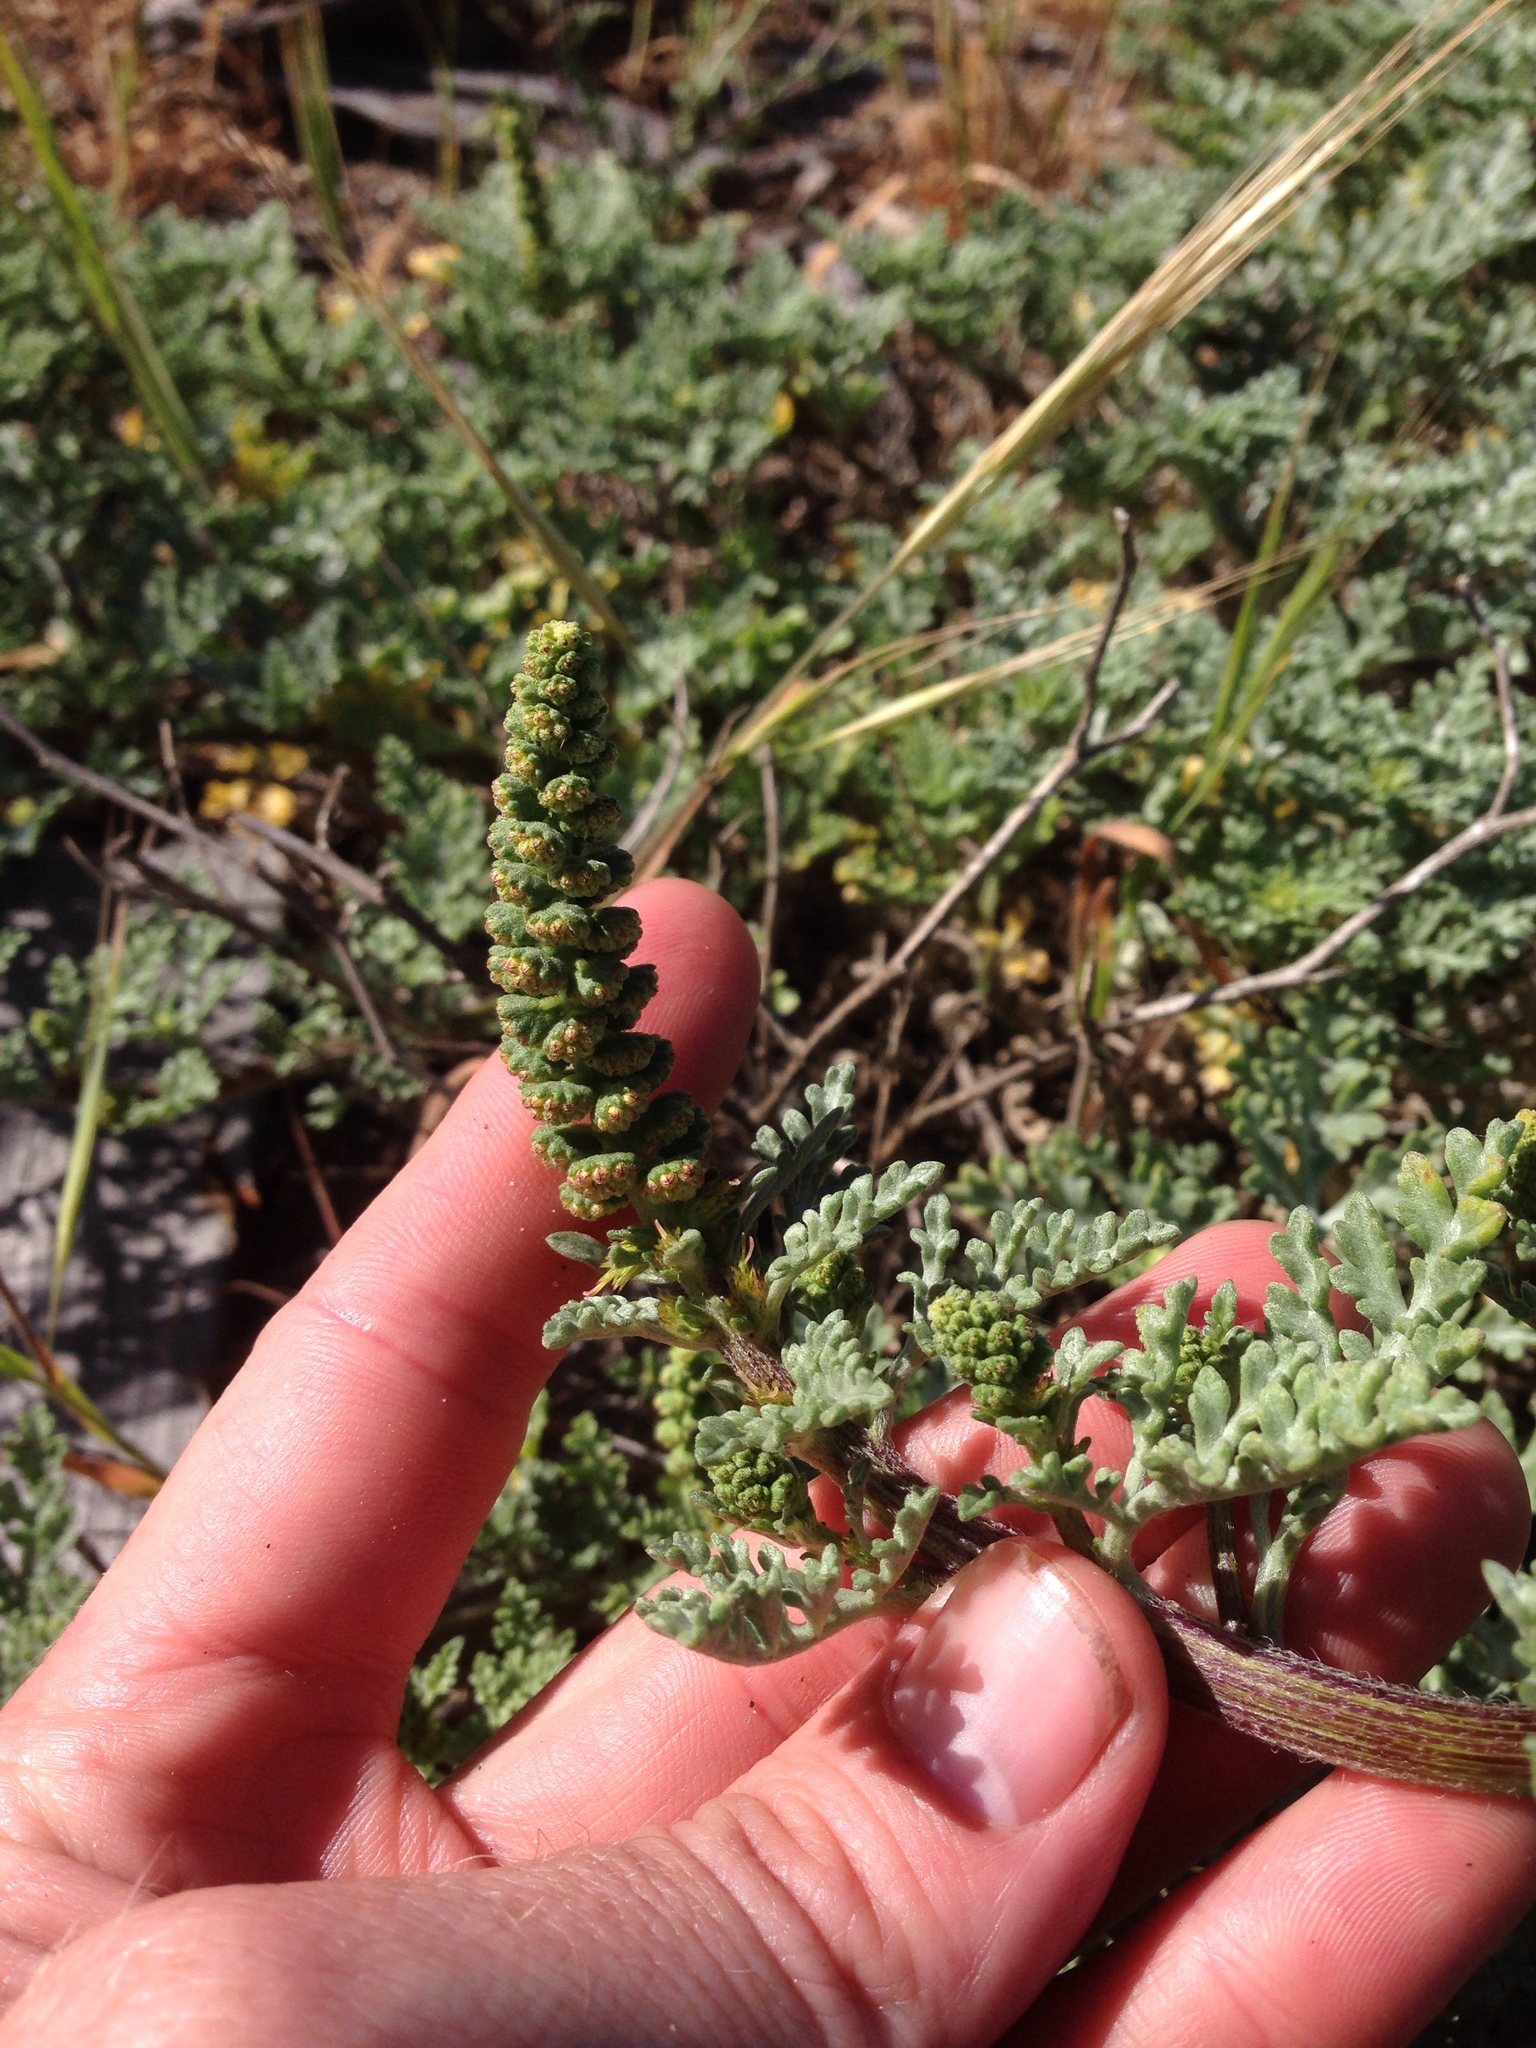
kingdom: Plantae
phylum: Tracheophyta
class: Magnoliopsida
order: Asterales
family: Asteraceae
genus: Ambrosia
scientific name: Ambrosia chamissonis
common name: Beachbur
